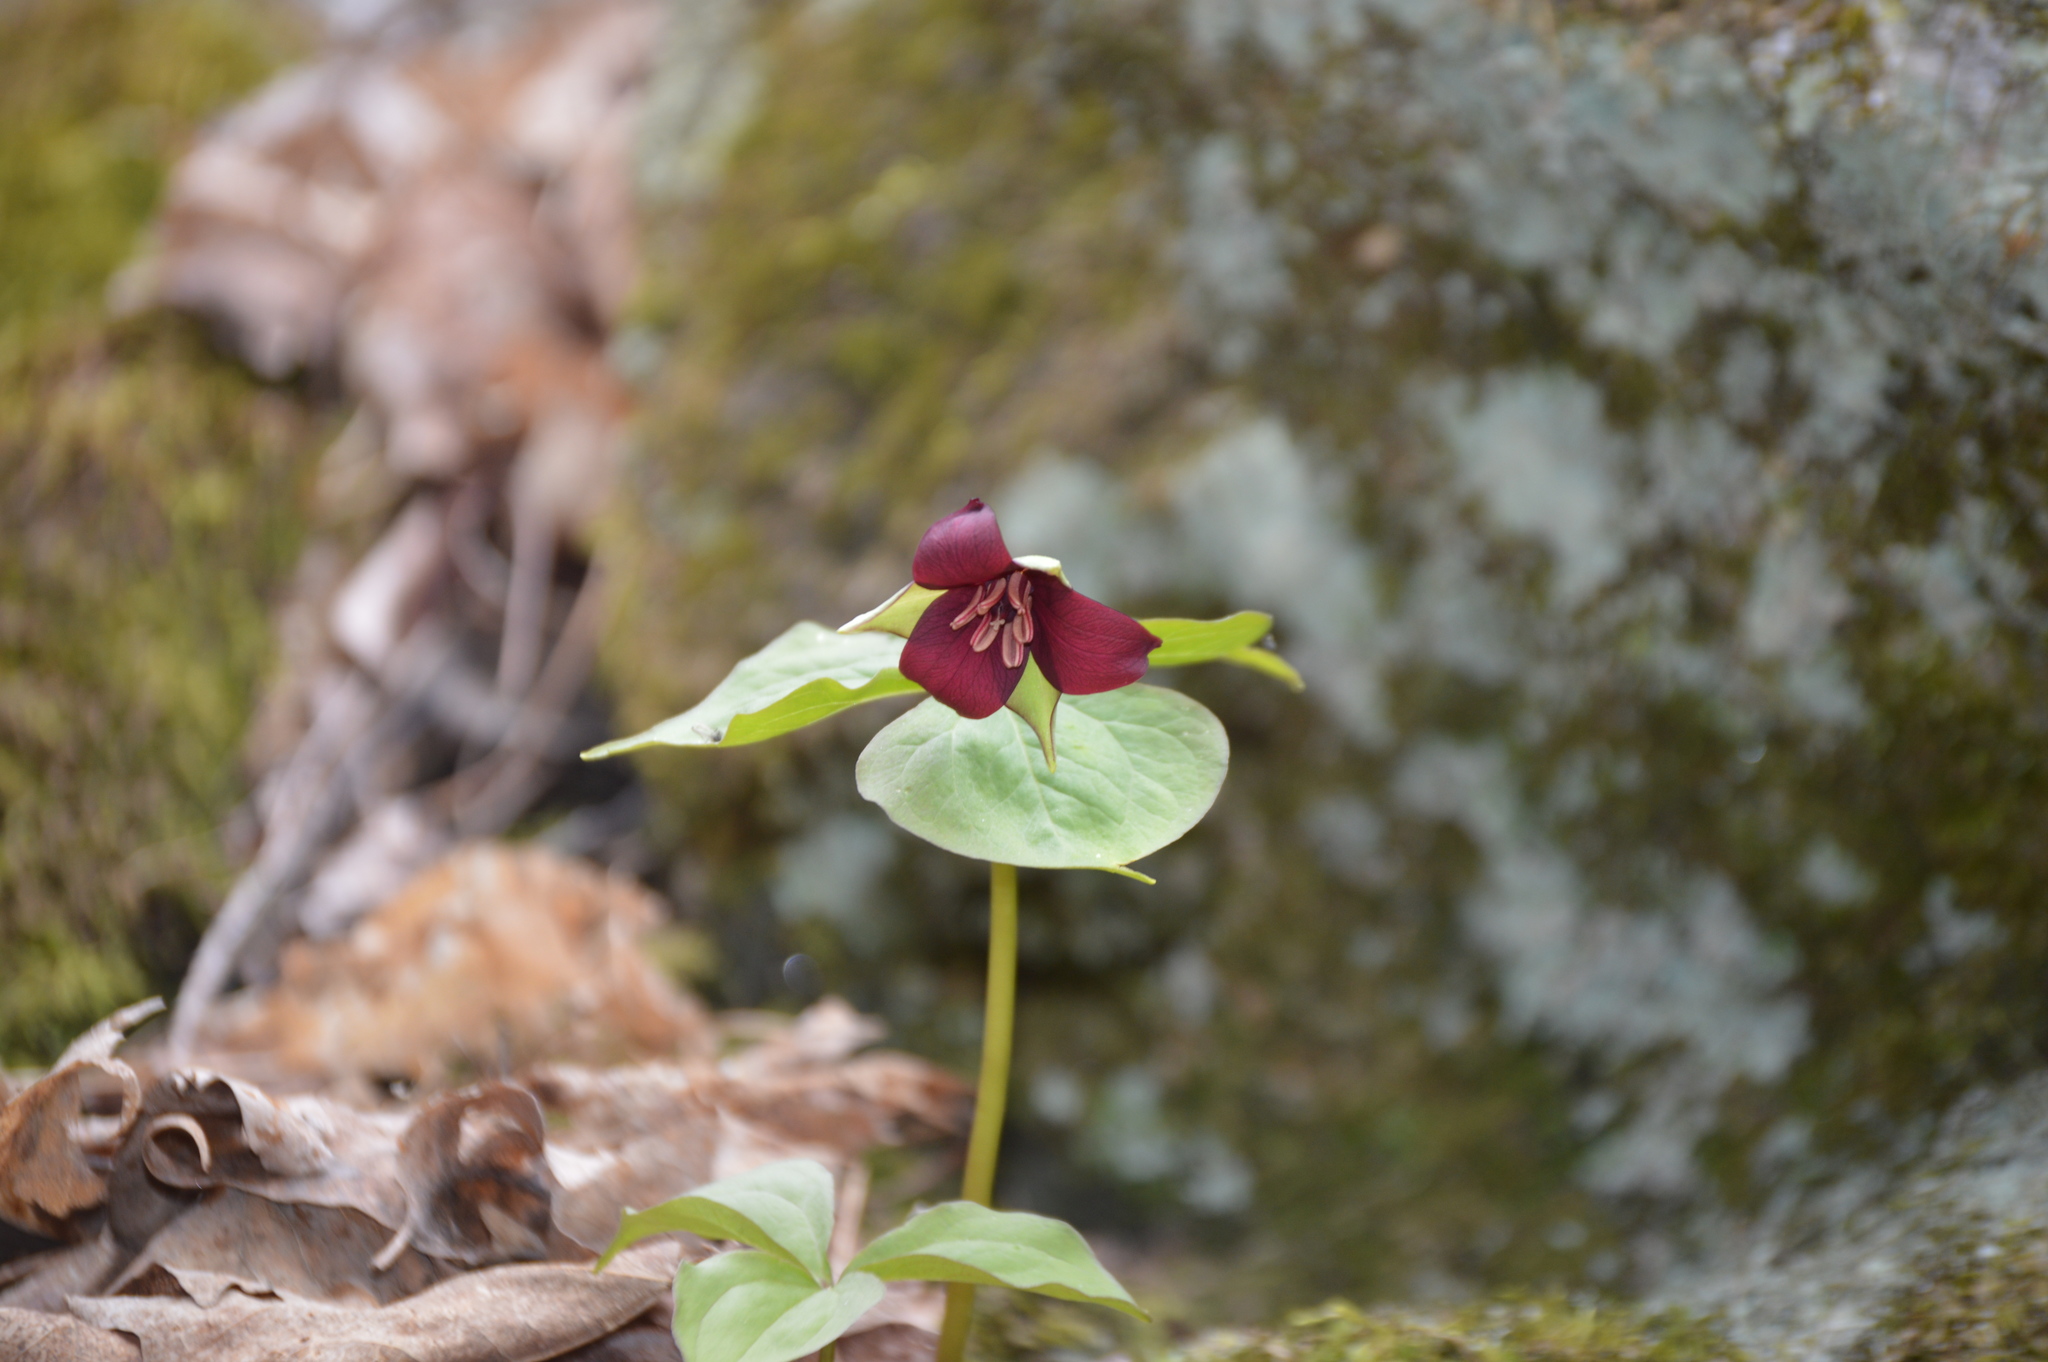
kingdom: Plantae
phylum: Tracheophyta
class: Liliopsida
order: Liliales
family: Melanthiaceae
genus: Trillium
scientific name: Trillium erectum
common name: Purple trillium
